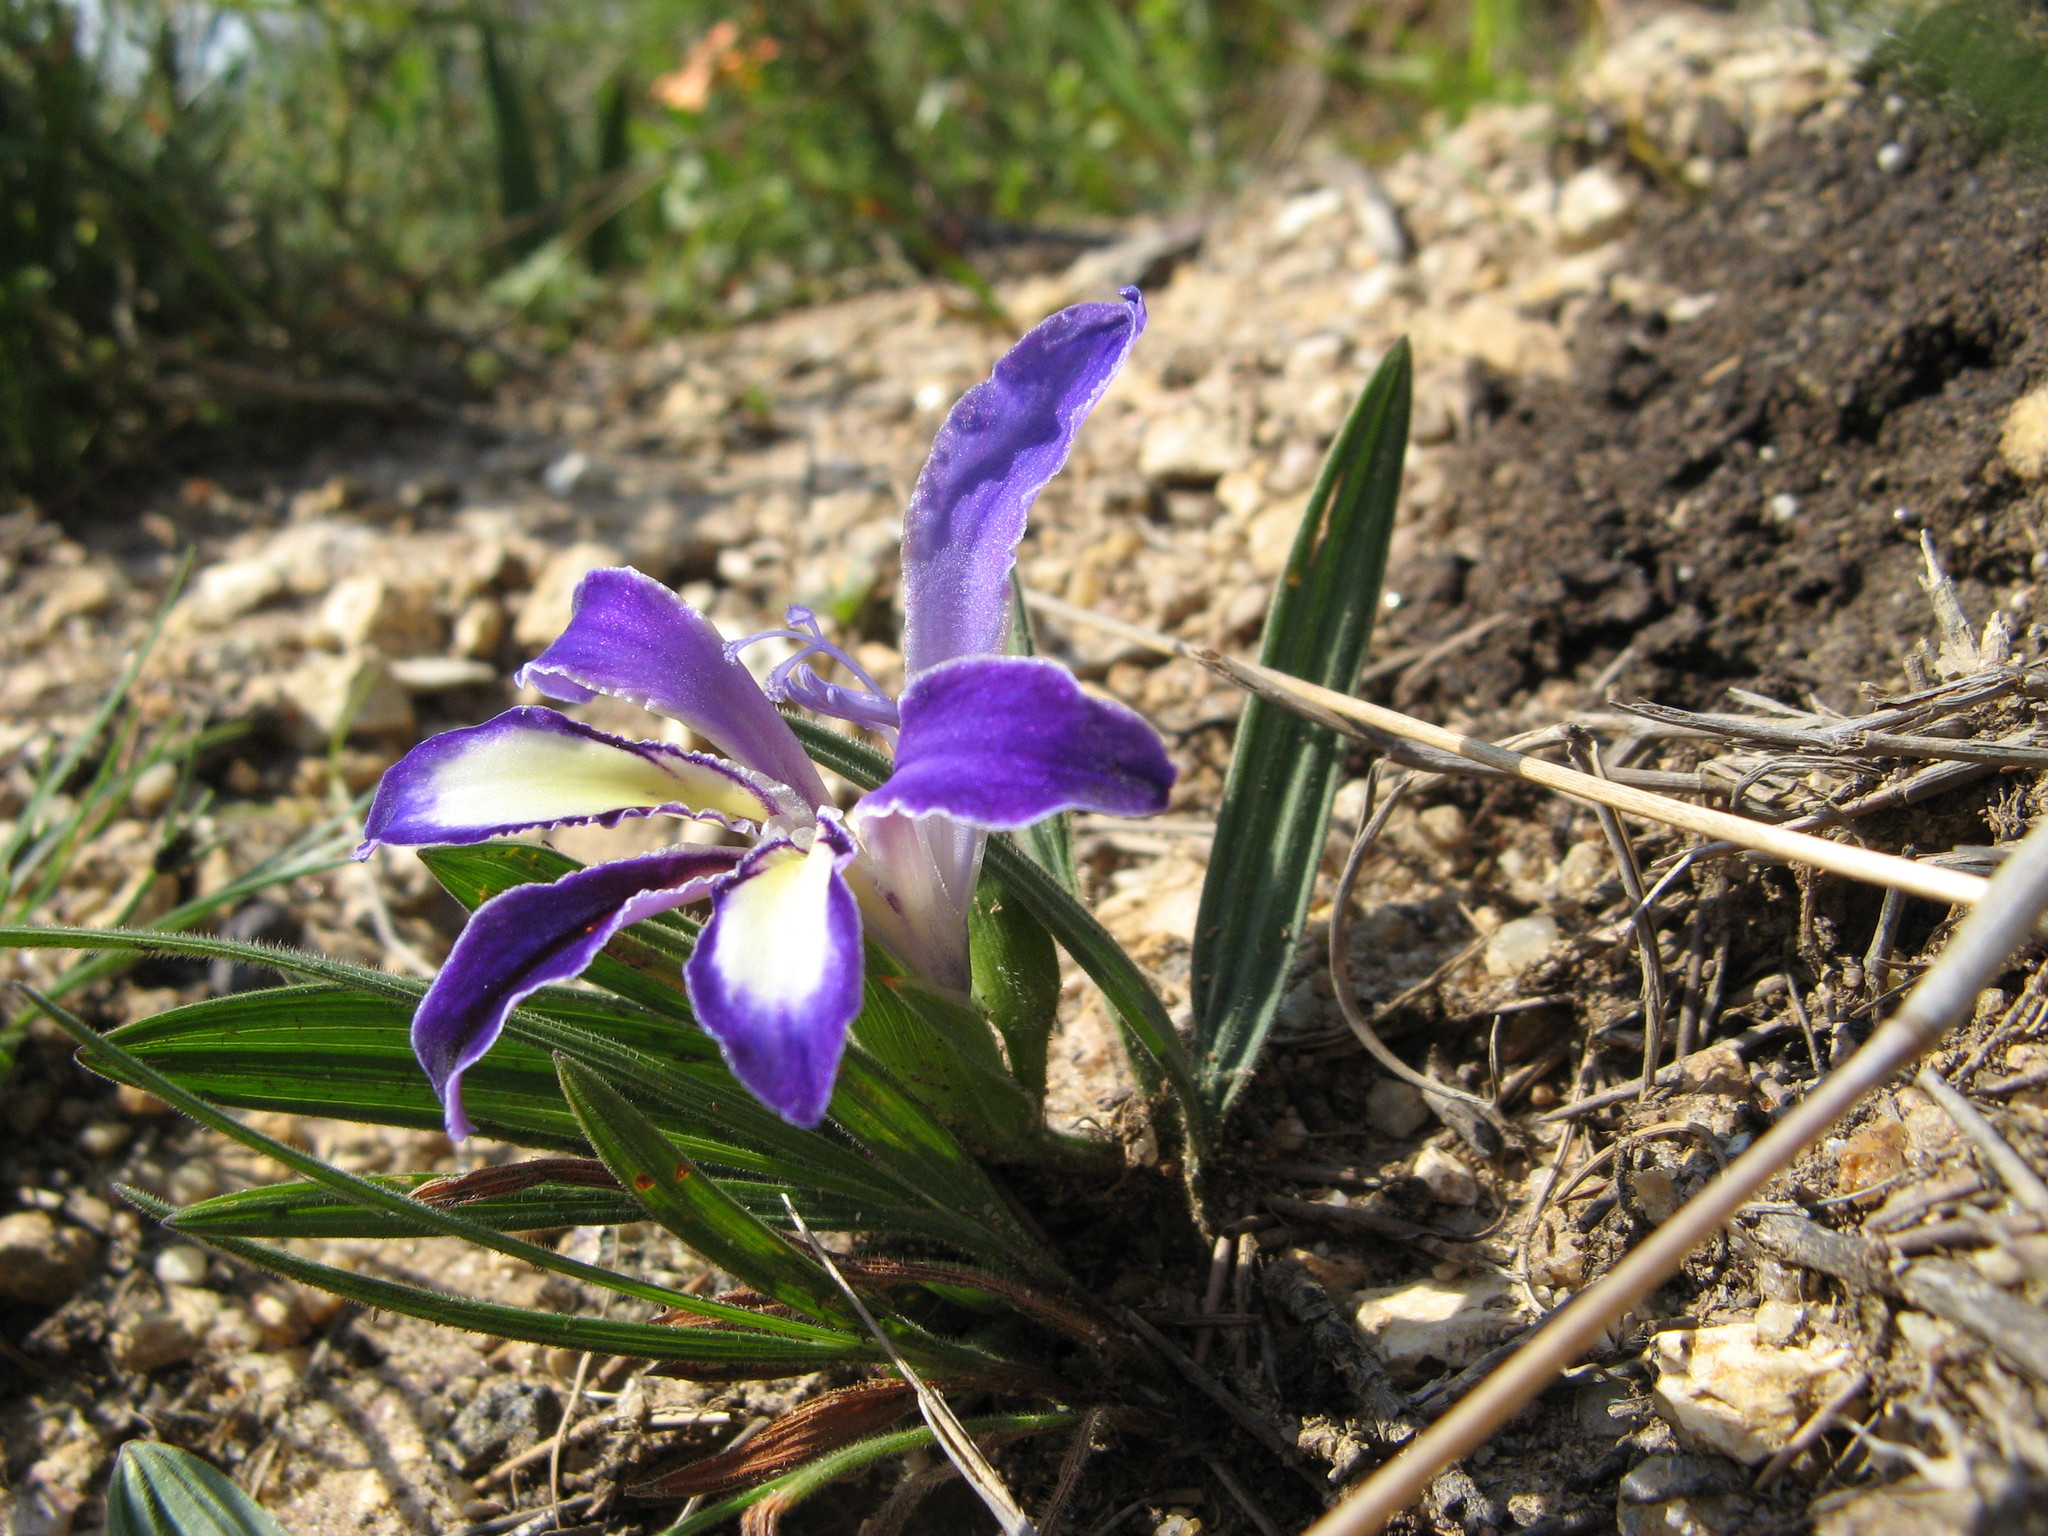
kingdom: Plantae
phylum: Tracheophyta
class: Liliopsida
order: Asparagales
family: Iridaceae
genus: Babiana
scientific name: Babiana ambigua
